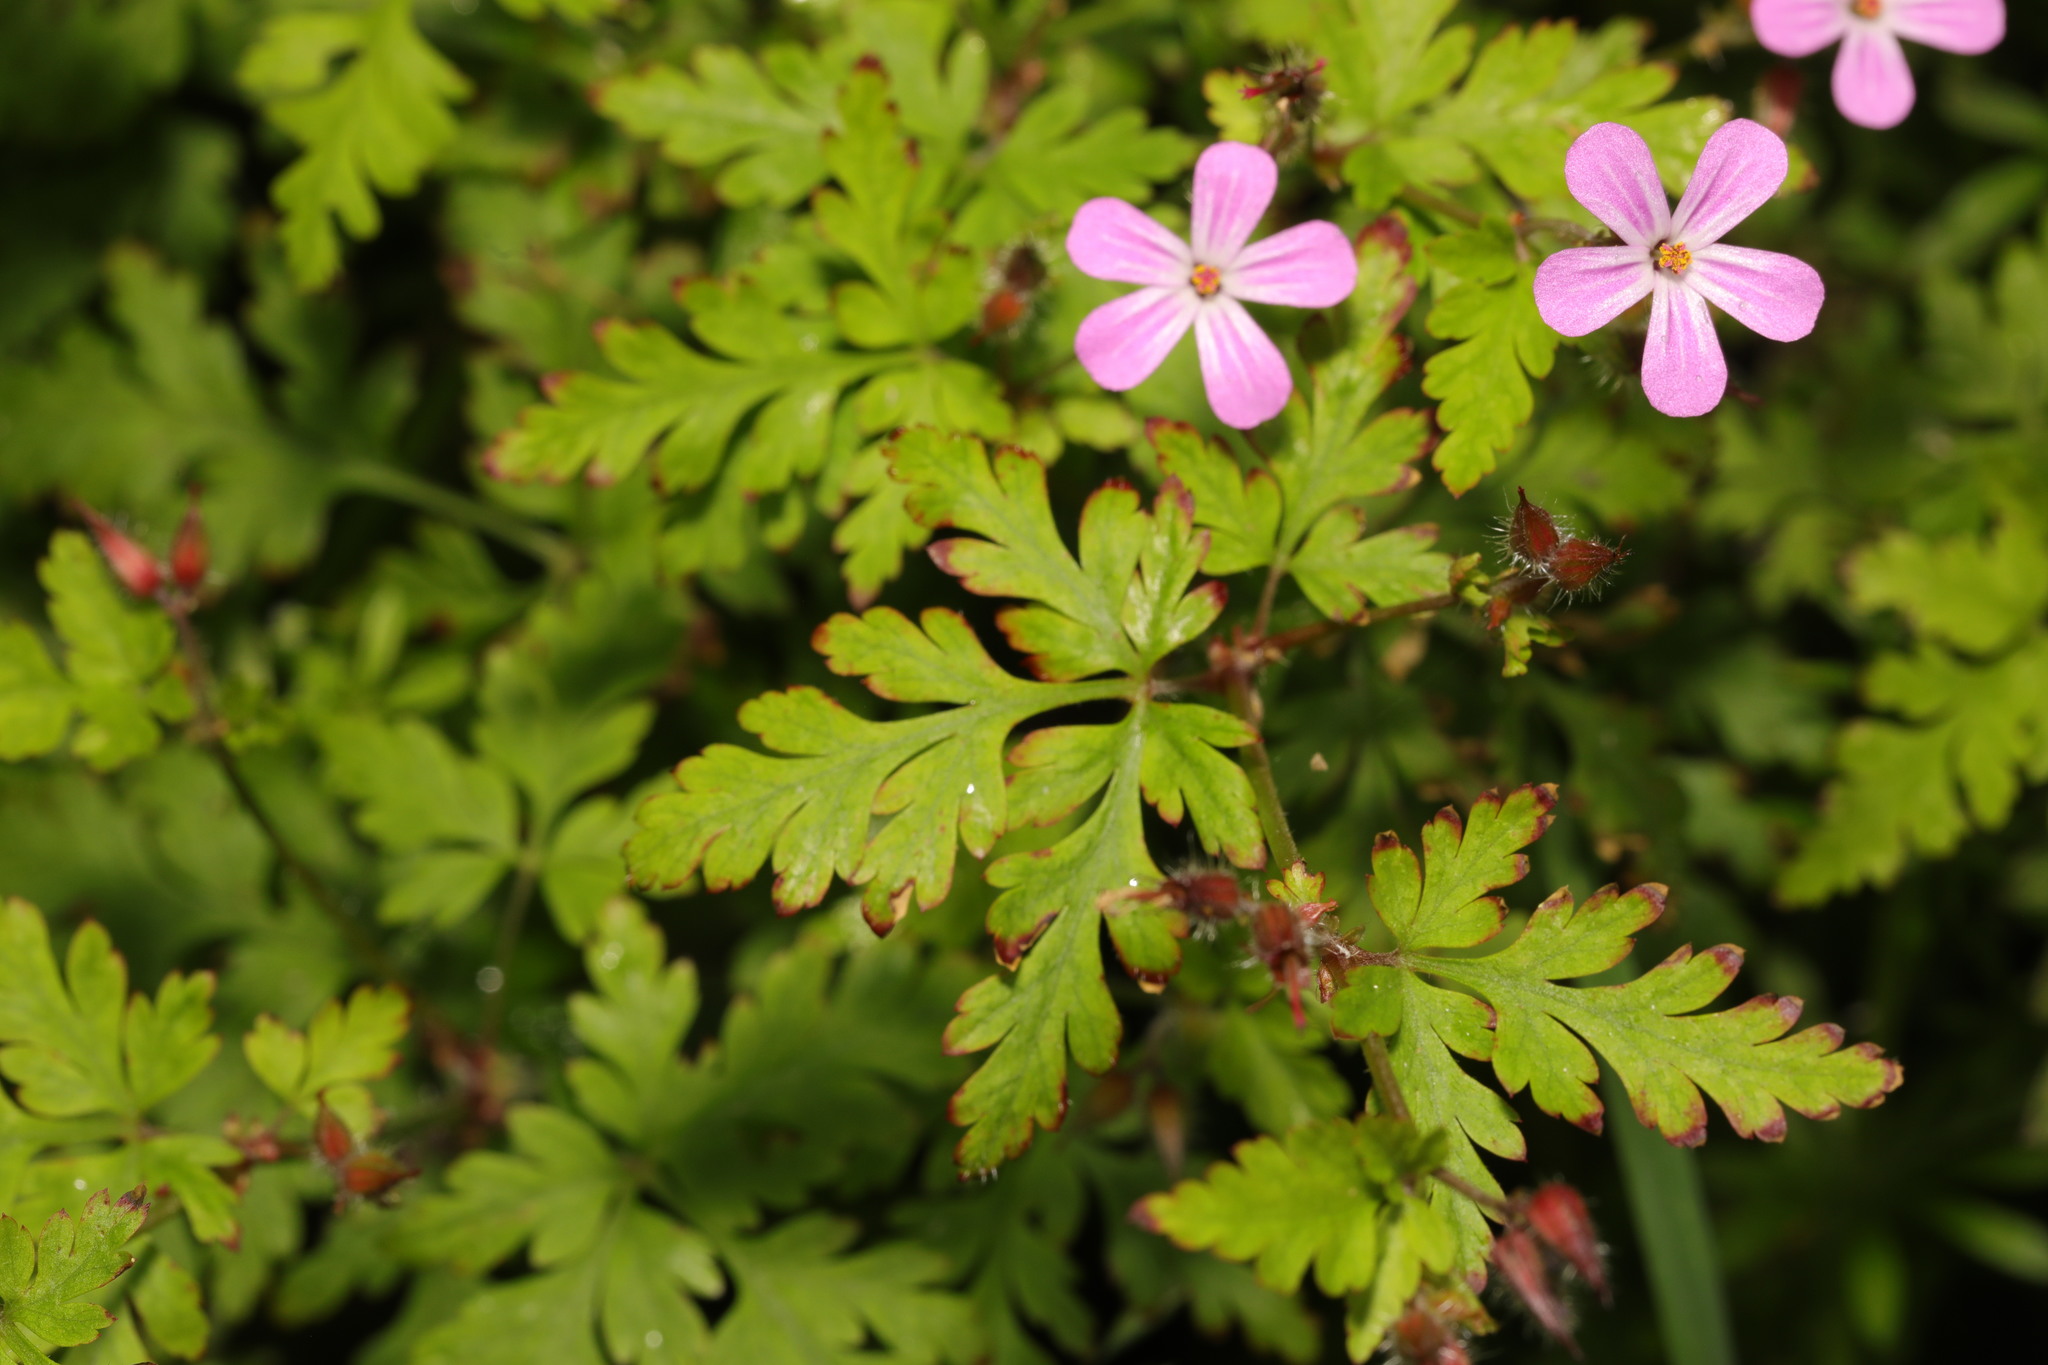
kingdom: Plantae
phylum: Tracheophyta
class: Magnoliopsida
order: Geraniales
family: Geraniaceae
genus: Geranium
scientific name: Geranium robertianum
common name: Herb-robert
